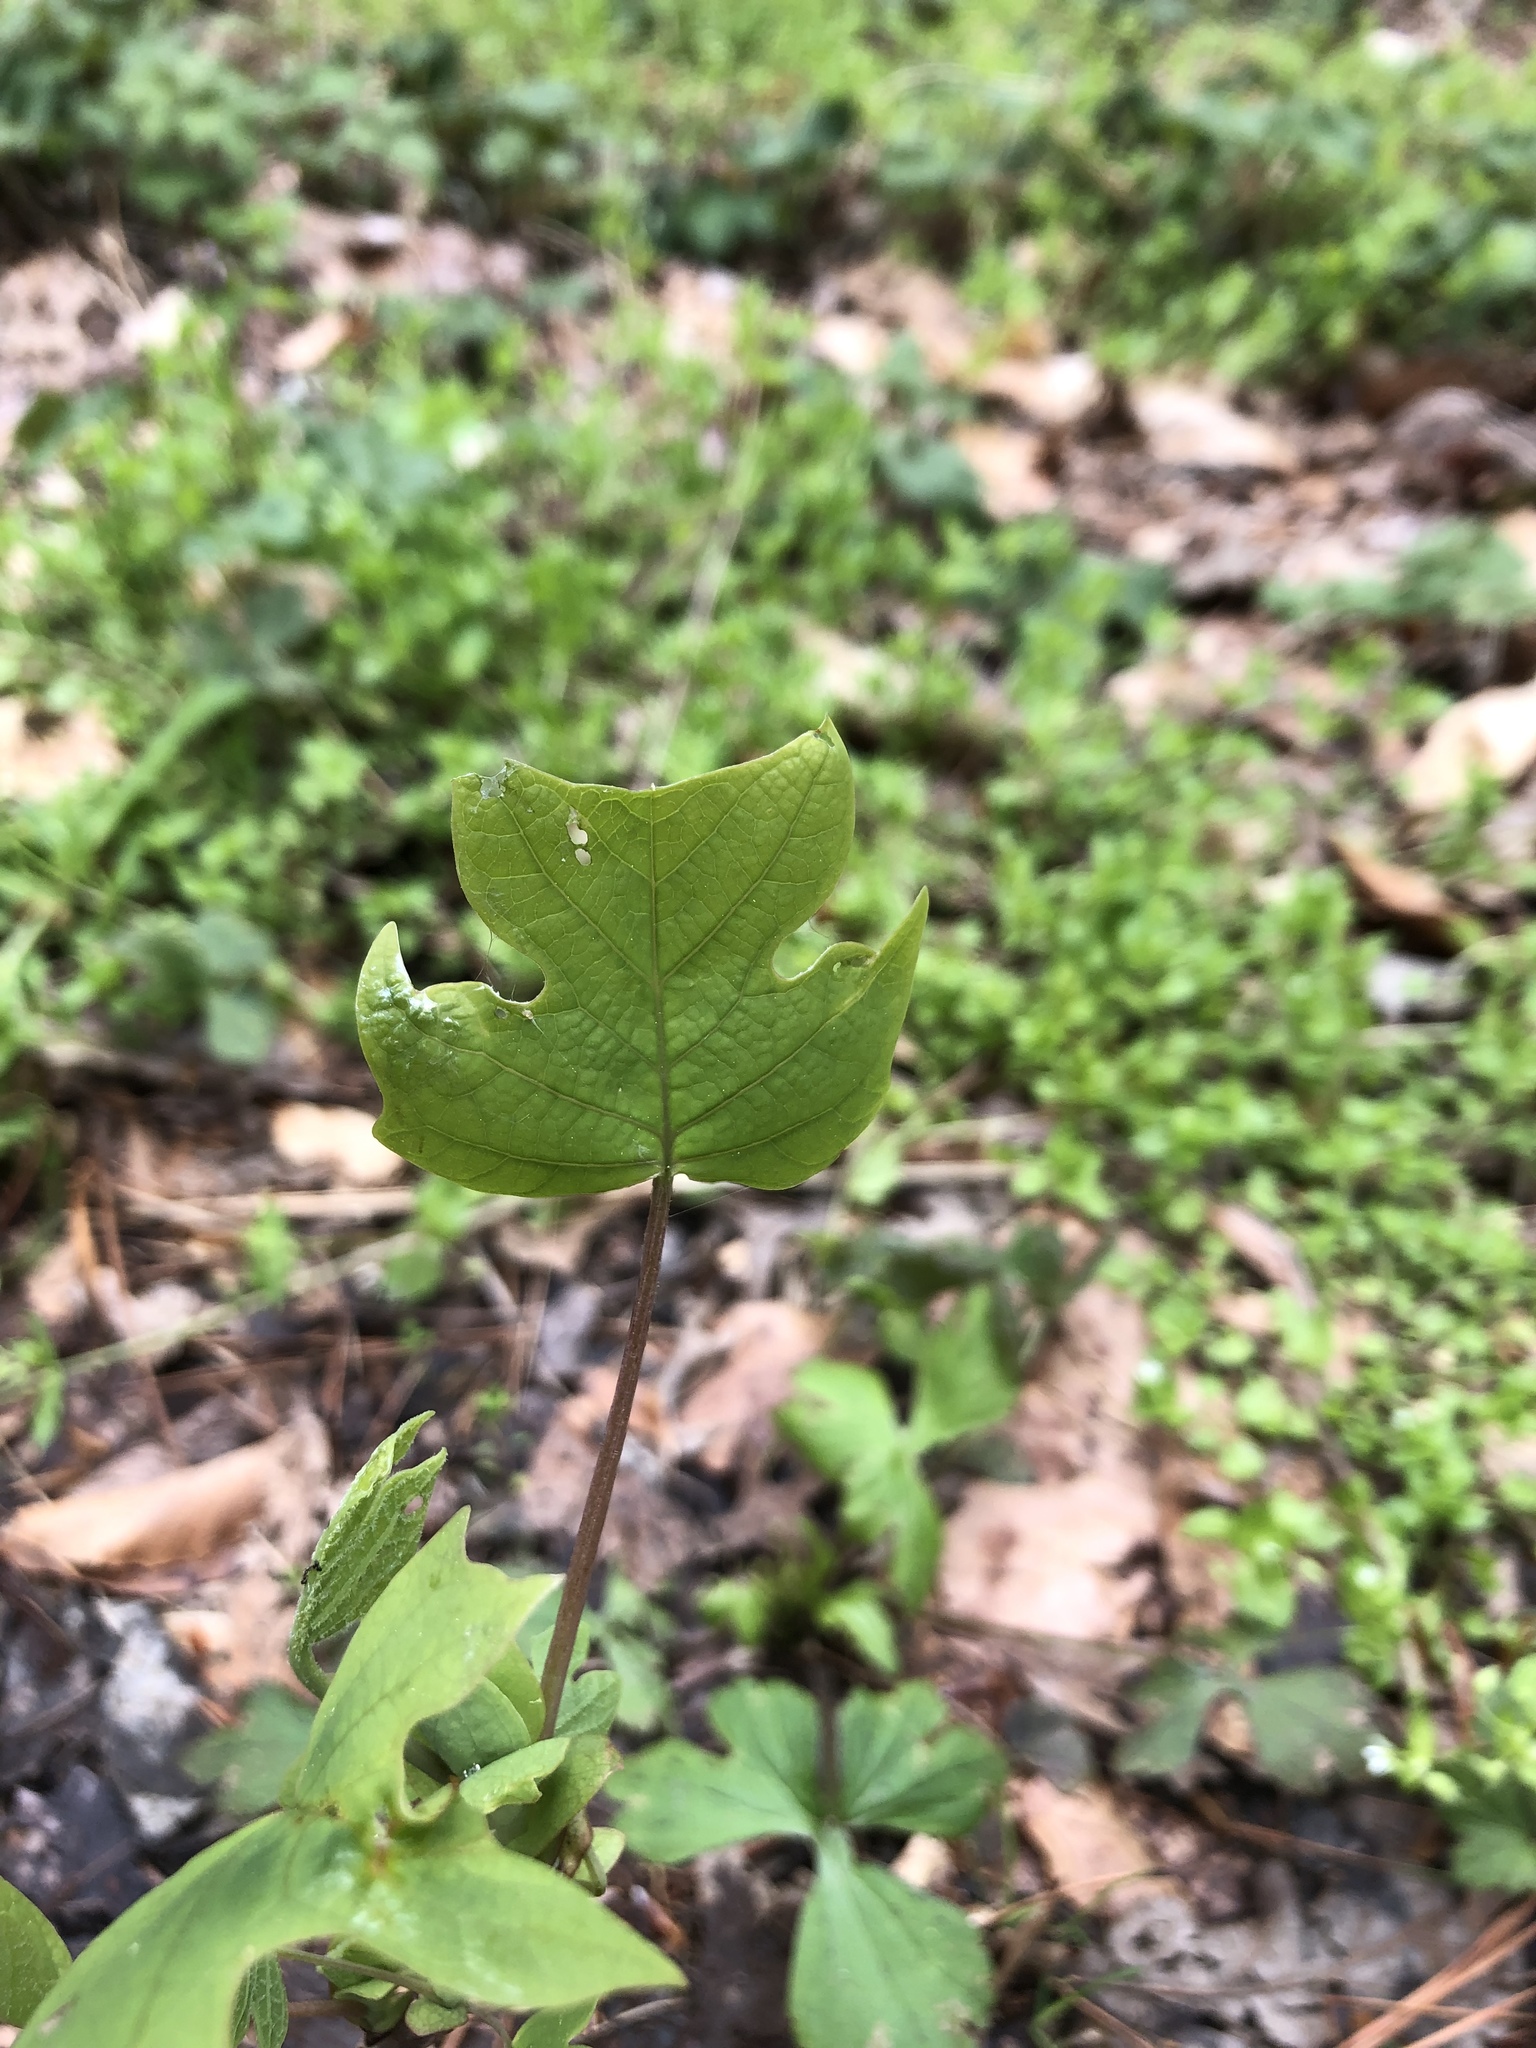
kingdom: Plantae
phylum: Tracheophyta
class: Magnoliopsida
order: Magnoliales
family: Magnoliaceae
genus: Liriodendron
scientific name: Liriodendron tulipifera
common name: Tulip tree
